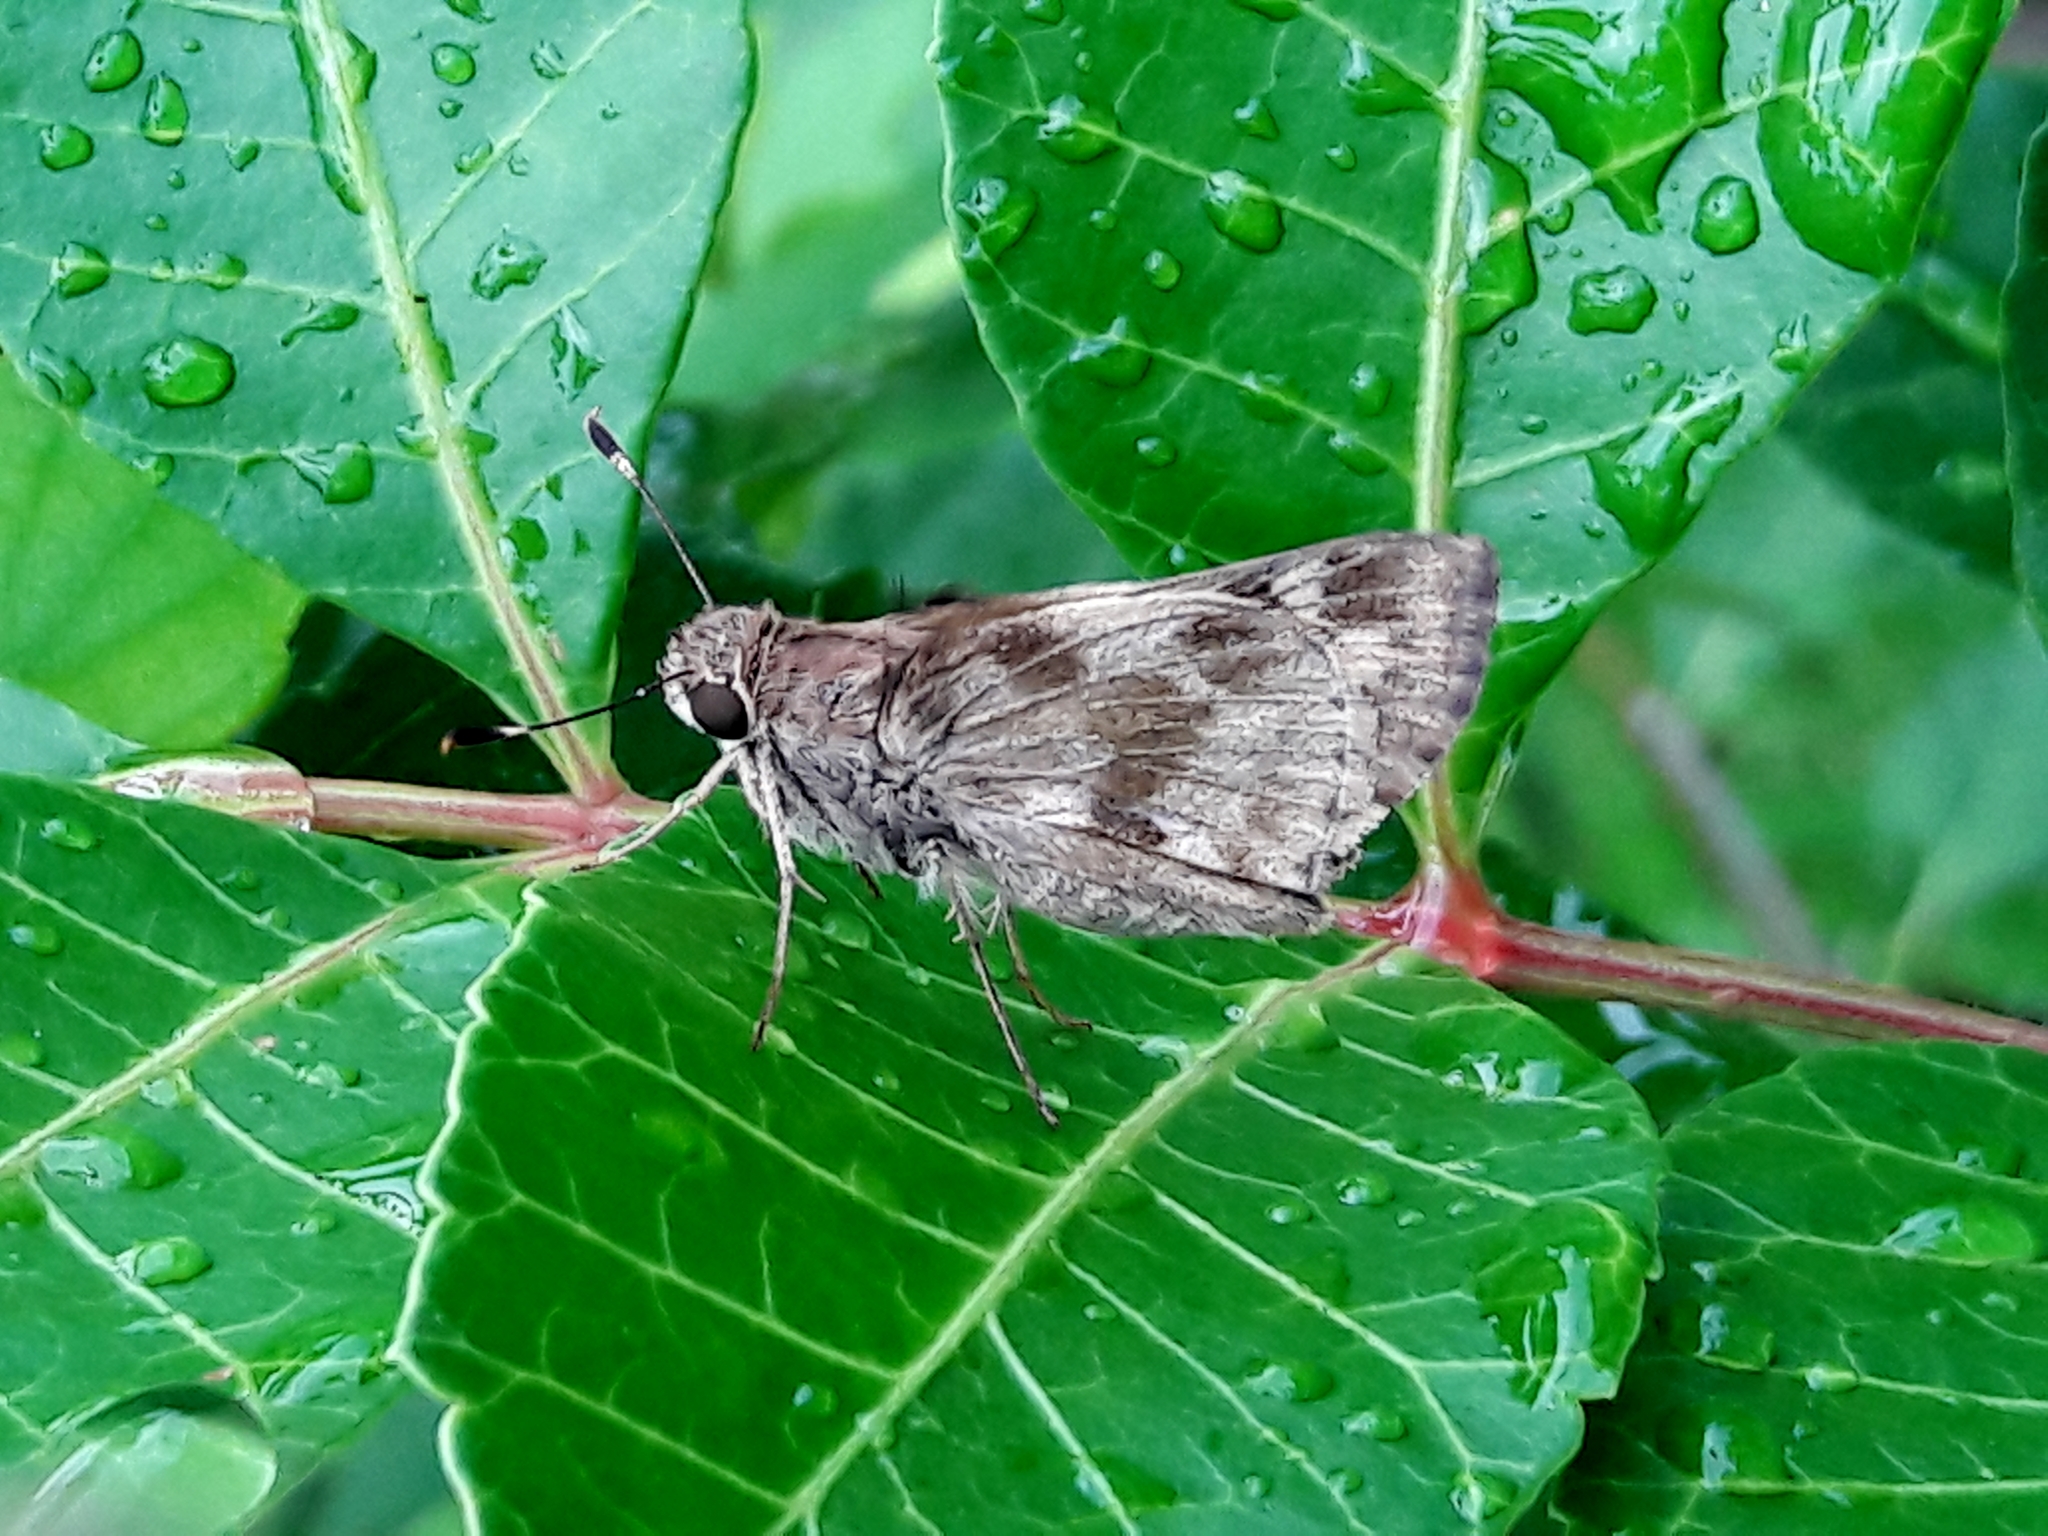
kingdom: Animalia
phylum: Arthropoda
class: Insecta
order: Lepidoptera
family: Hesperiidae
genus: Pompeius
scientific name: Pompeius pompeius
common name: Pompeius skipper
